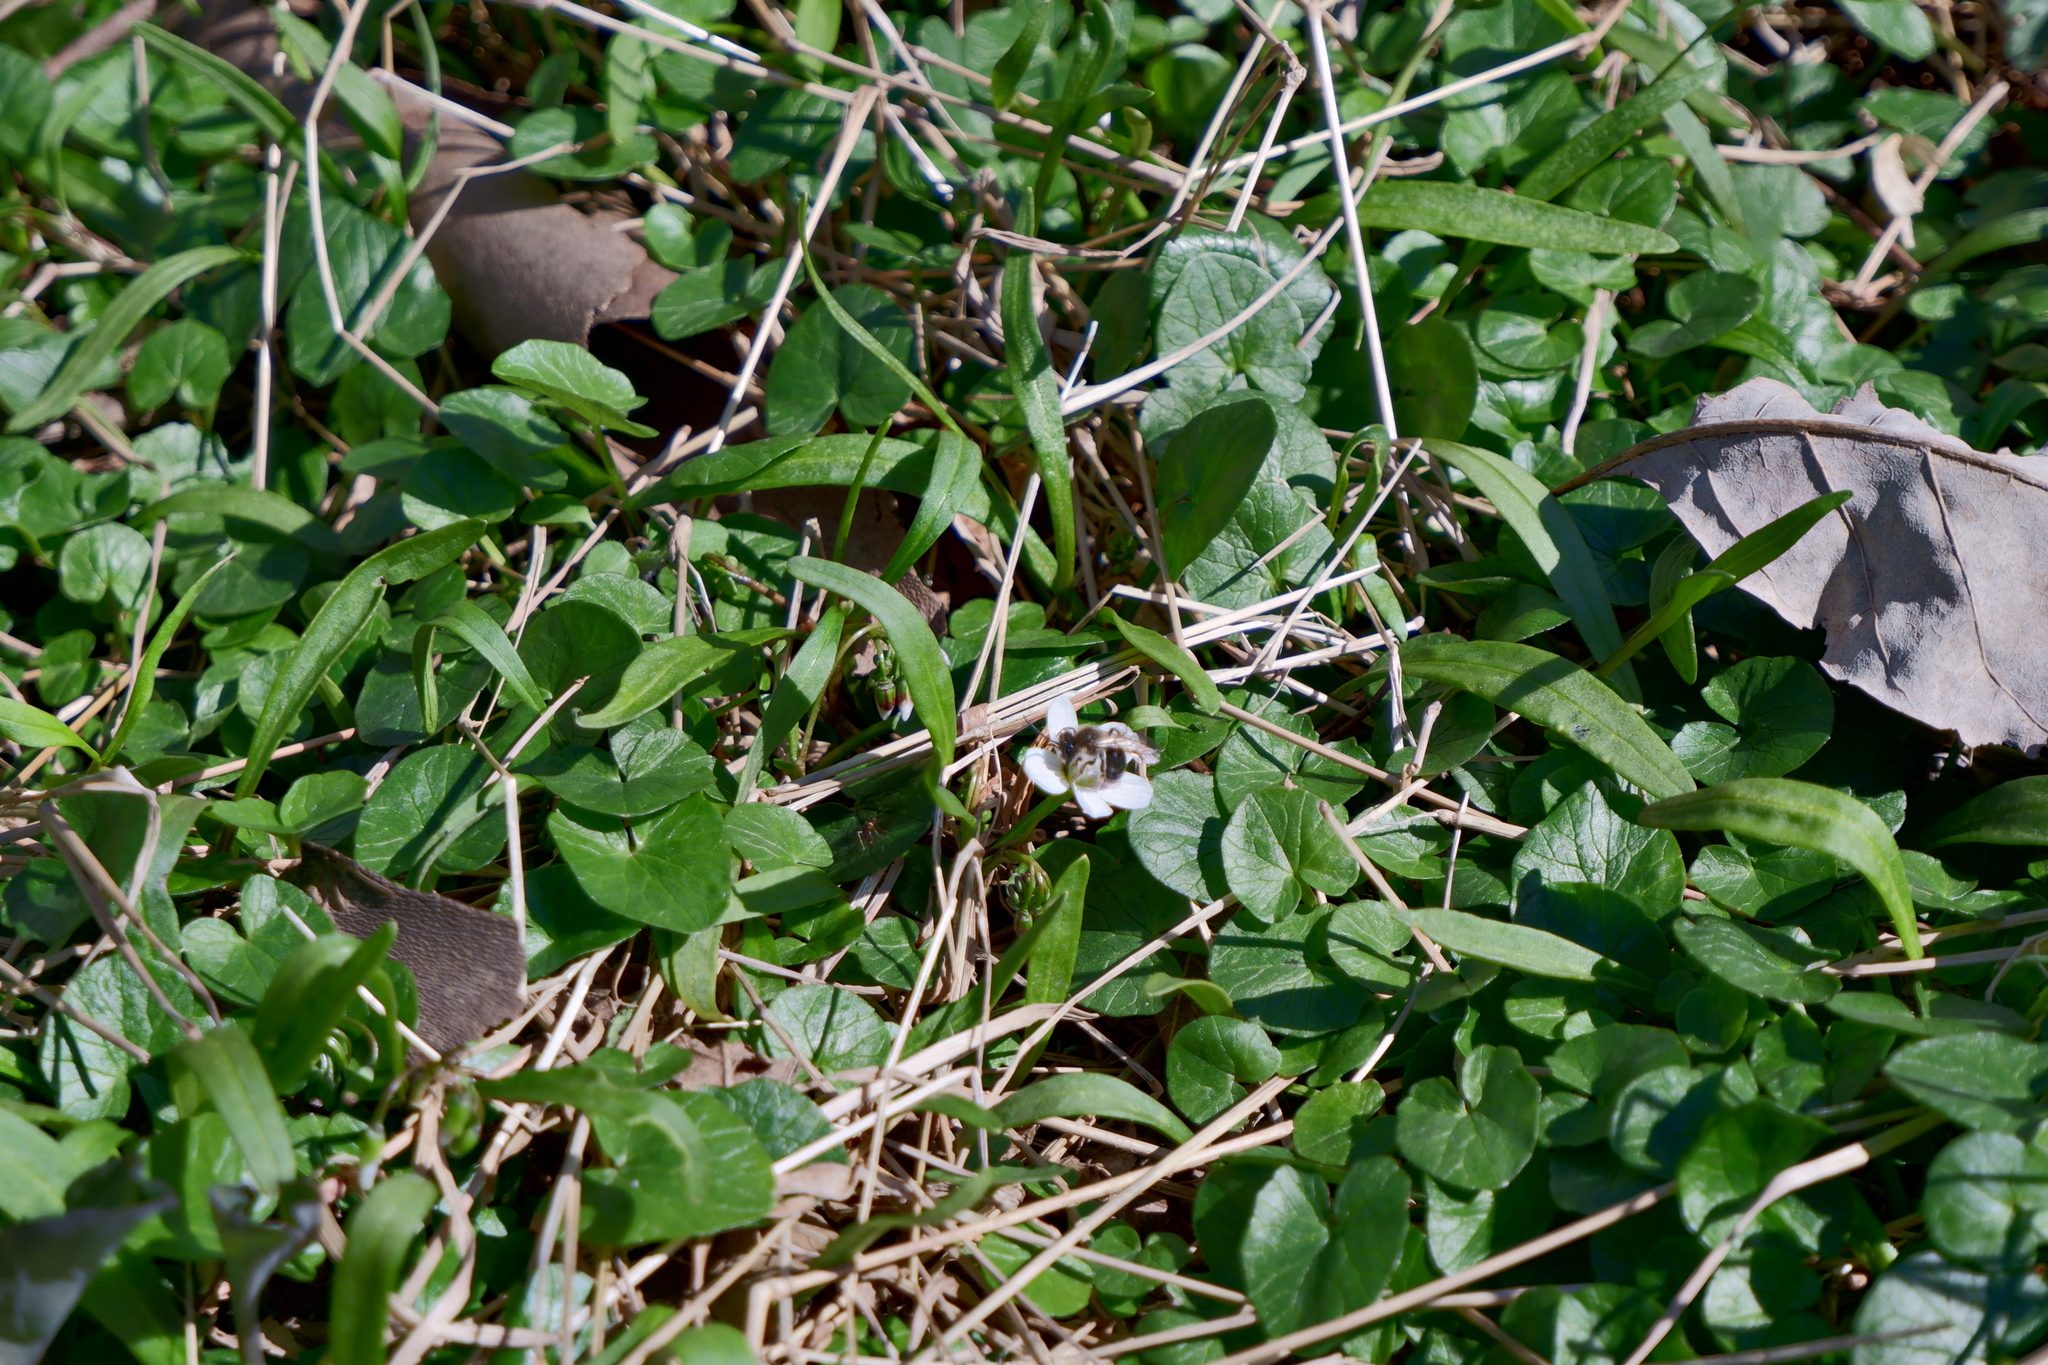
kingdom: Animalia
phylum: Arthropoda
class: Insecta
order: Hymenoptera
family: Andrenidae
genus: Andrena
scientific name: Andrena erigeniae
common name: Spring beauty miner
